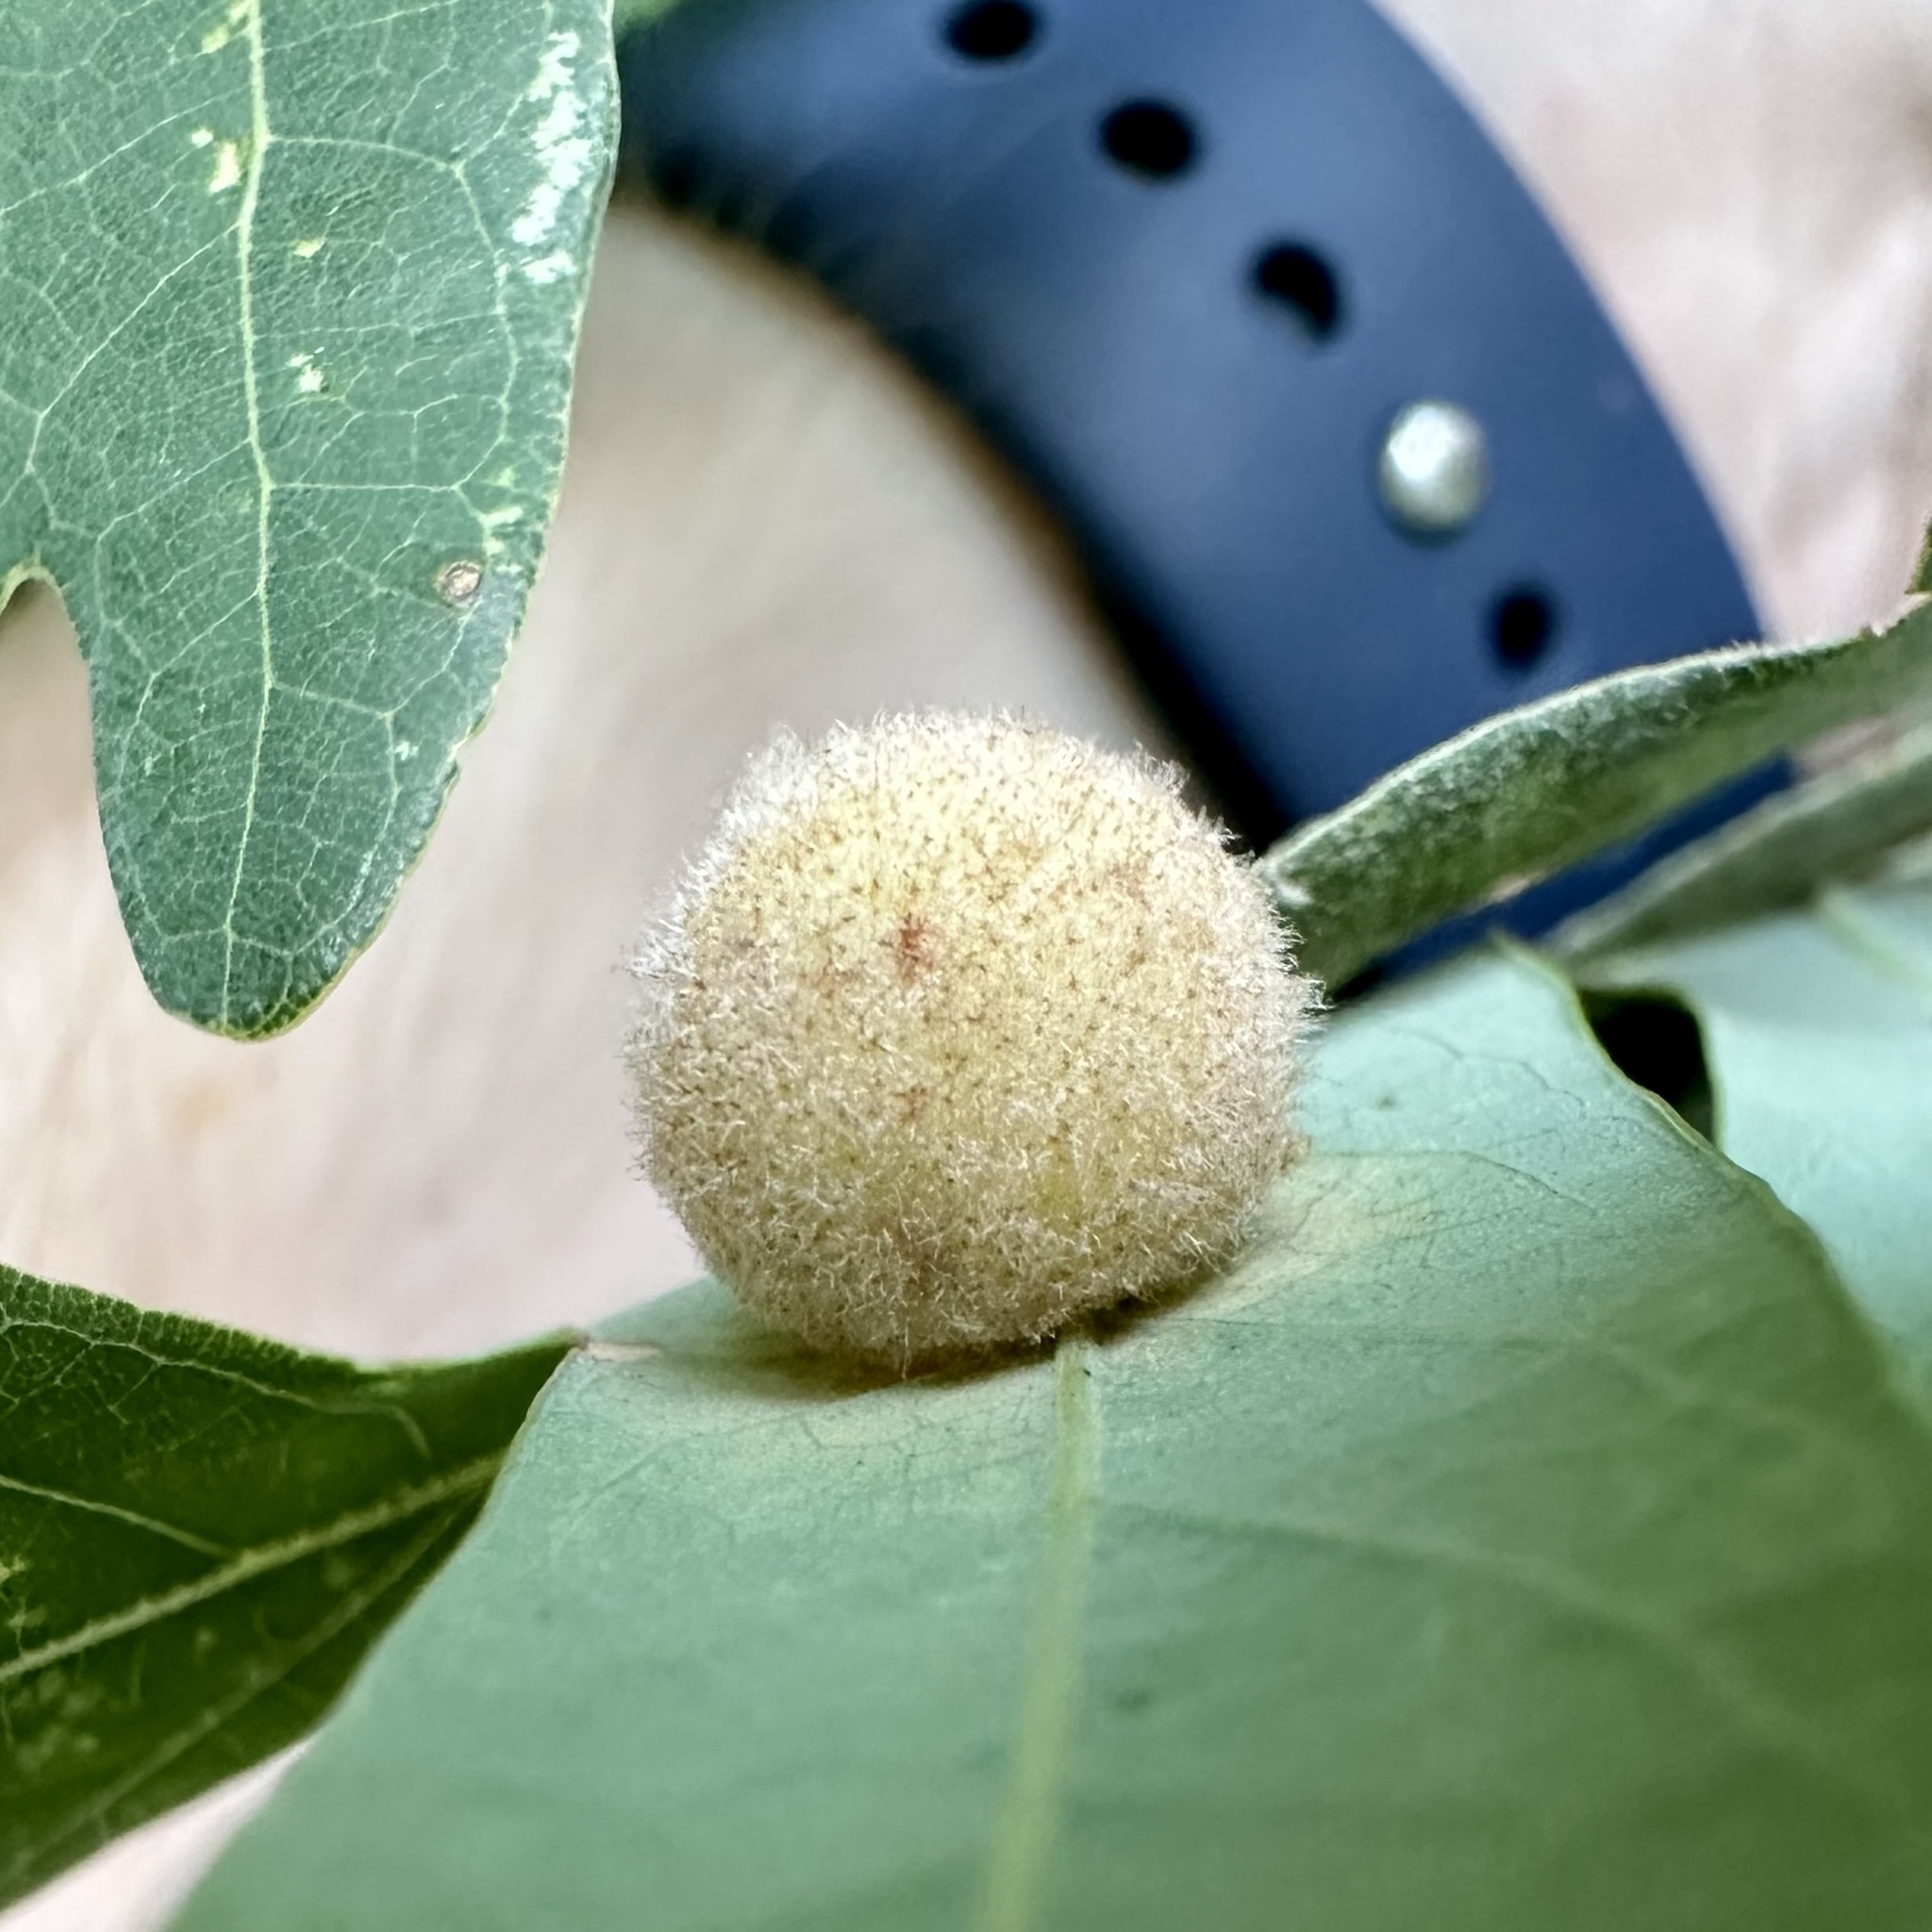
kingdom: Animalia
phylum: Arthropoda
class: Insecta
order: Hymenoptera
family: Cynipidae
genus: Philonix
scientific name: Philonix fulvicollis
